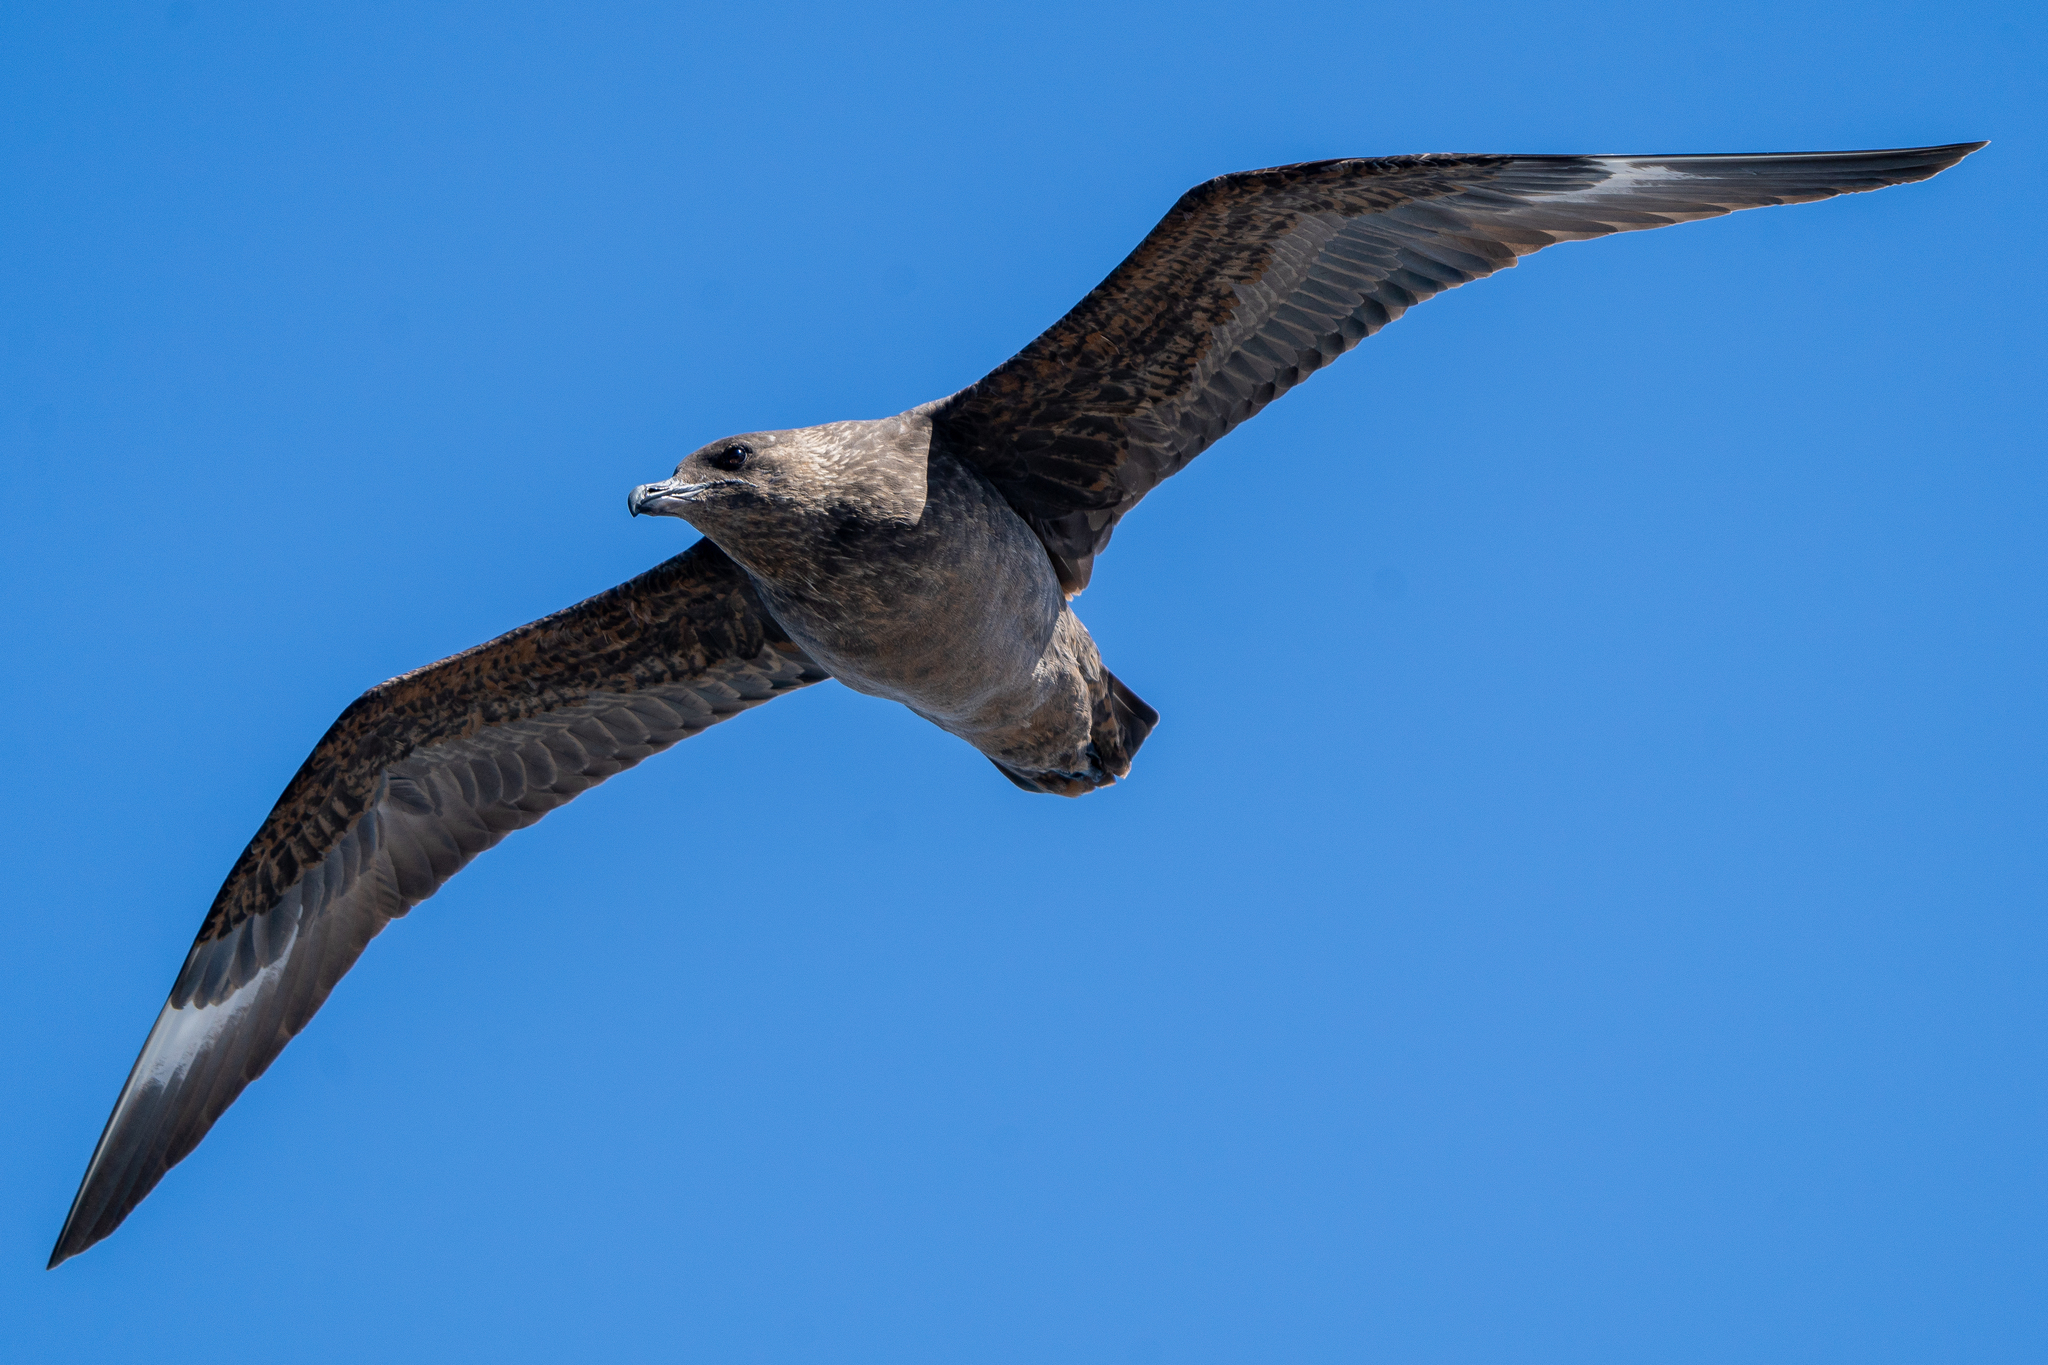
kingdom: Animalia
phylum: Chordata
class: Aves
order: Charadriiformes
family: Stercorariidae
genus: Stercorarius
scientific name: Stercorarius chilensis
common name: Chilean skua
